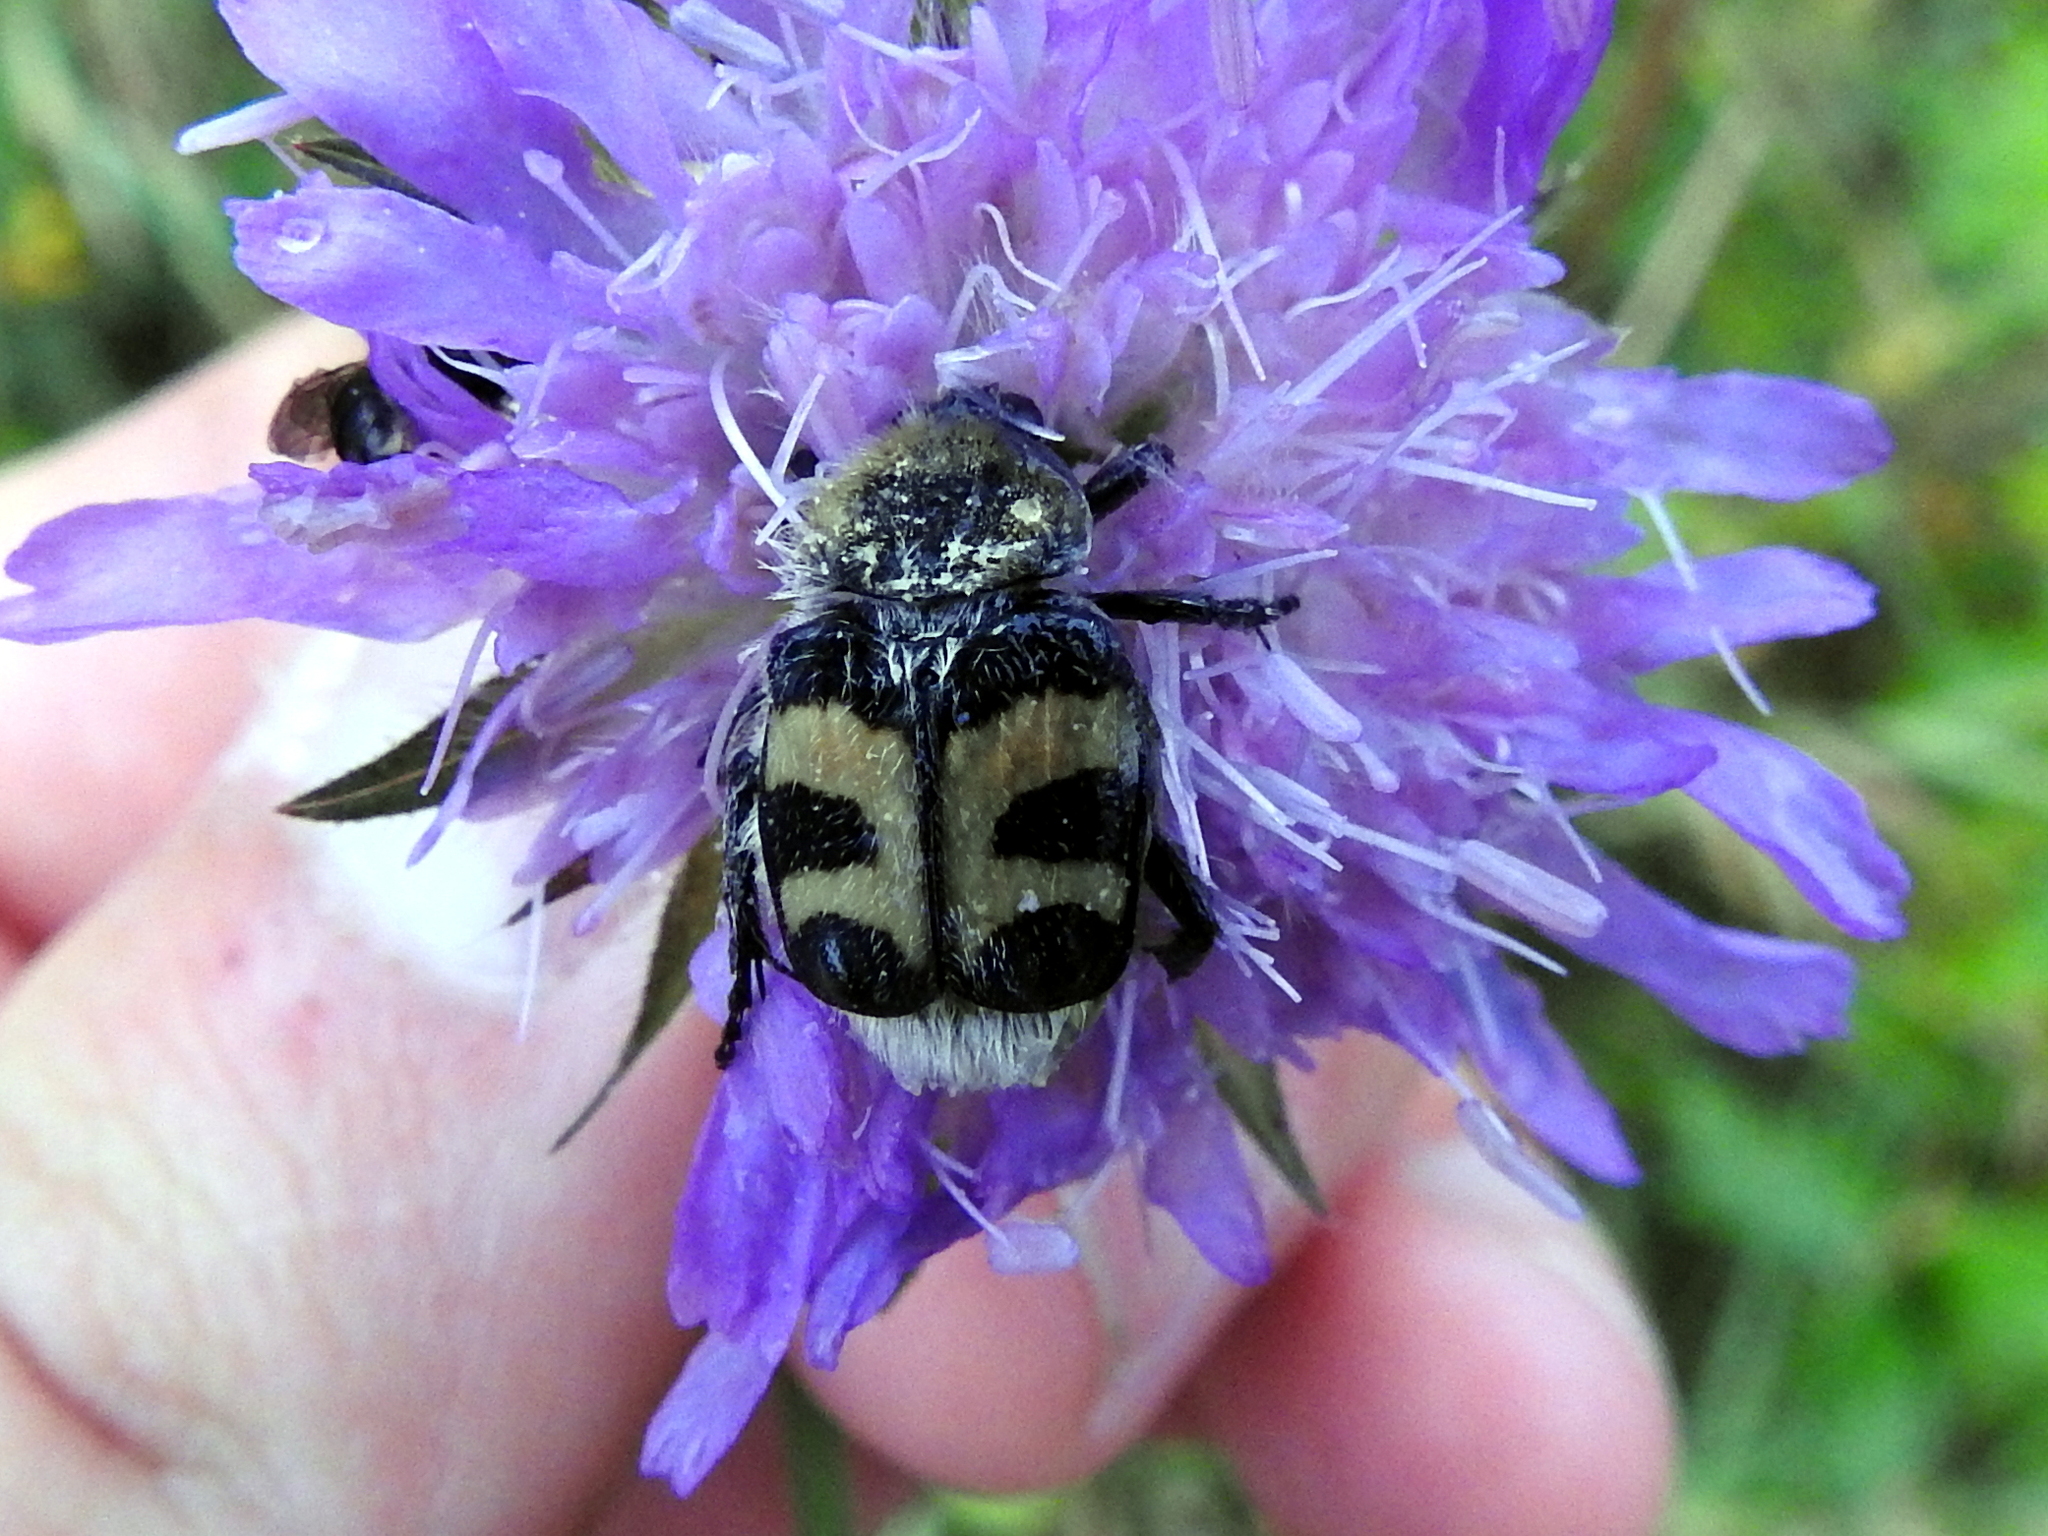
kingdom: Animalia
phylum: Arthropoda
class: Insecta
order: Coleoptera
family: Scarabaeidae
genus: Trichius
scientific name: Trichius fasciatus
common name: Bee beetle
